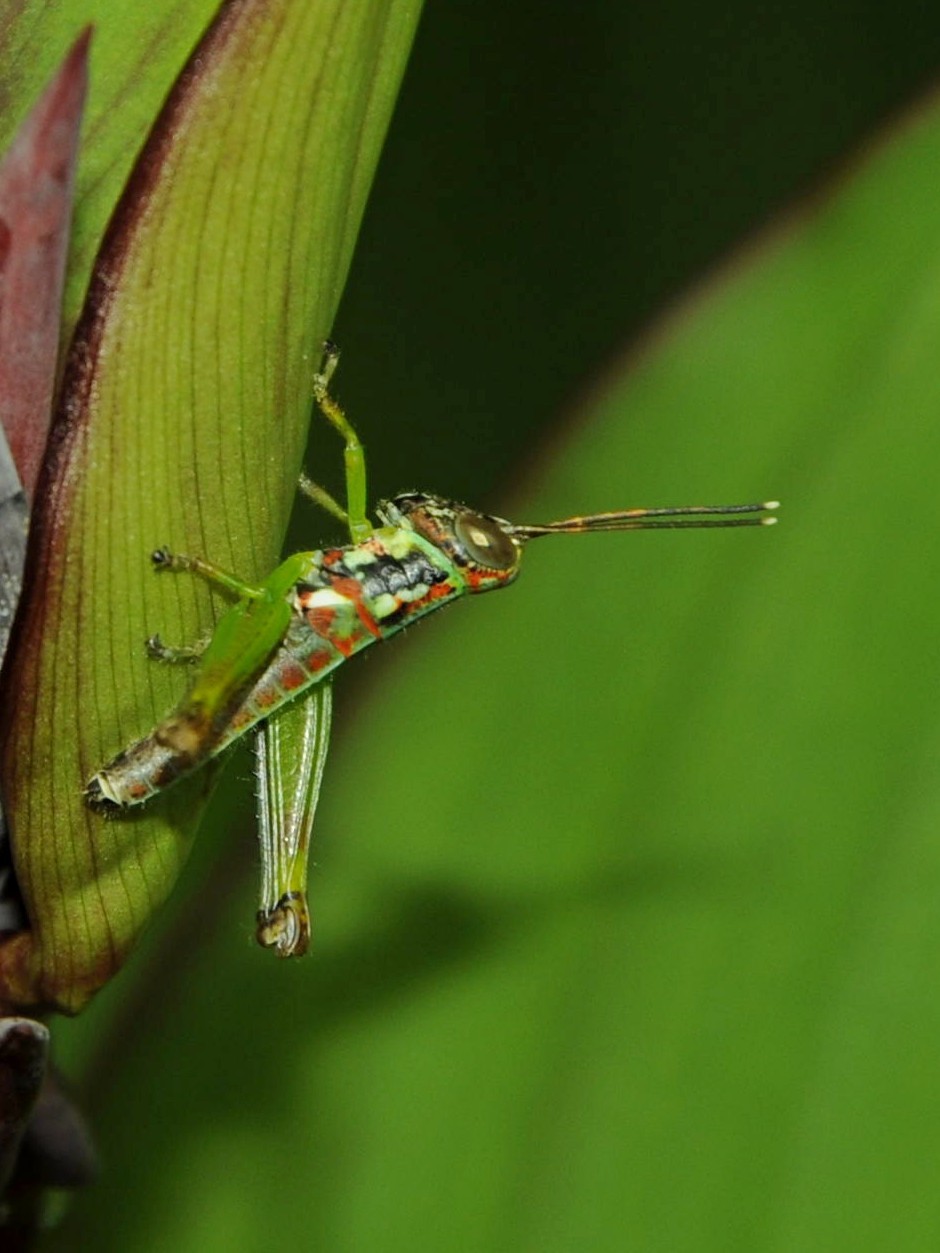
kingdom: Animalia
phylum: Arthropoda
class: Insecta
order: Orthoptera
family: Acrididae
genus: Pirithoicus
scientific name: Pirithoicus ophthalmicus
